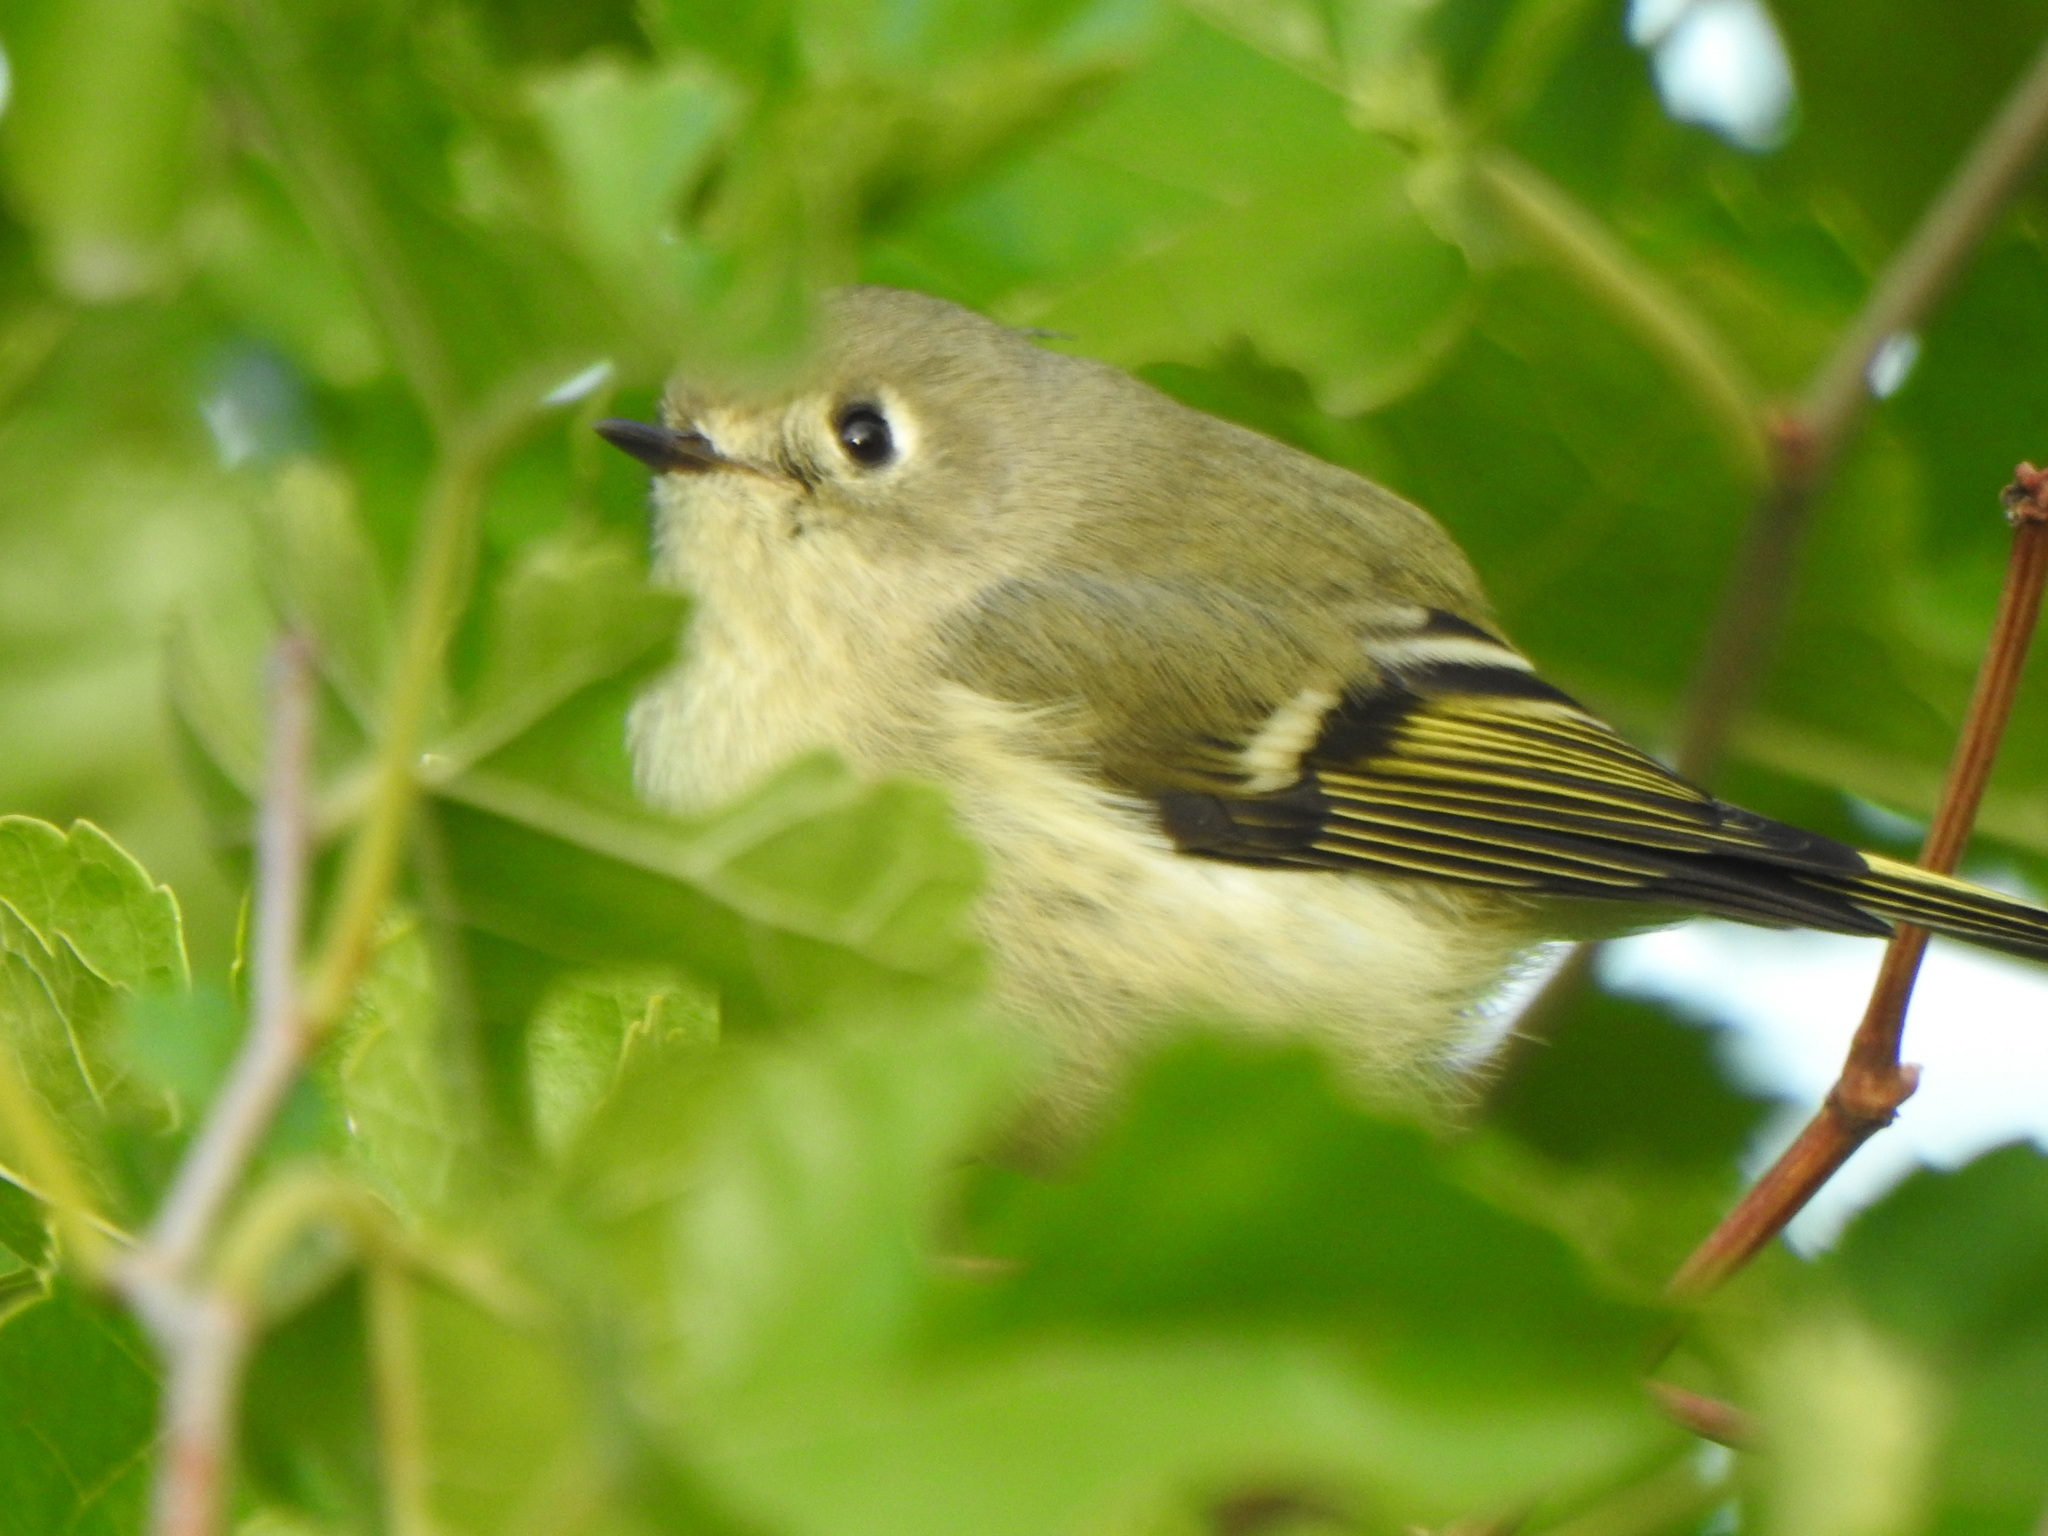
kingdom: Animalia
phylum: Chordata
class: Aves
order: Passeriformes
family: Regulidae
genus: Regulus
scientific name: Regulus calendula
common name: Ruby-crowned kinglet
